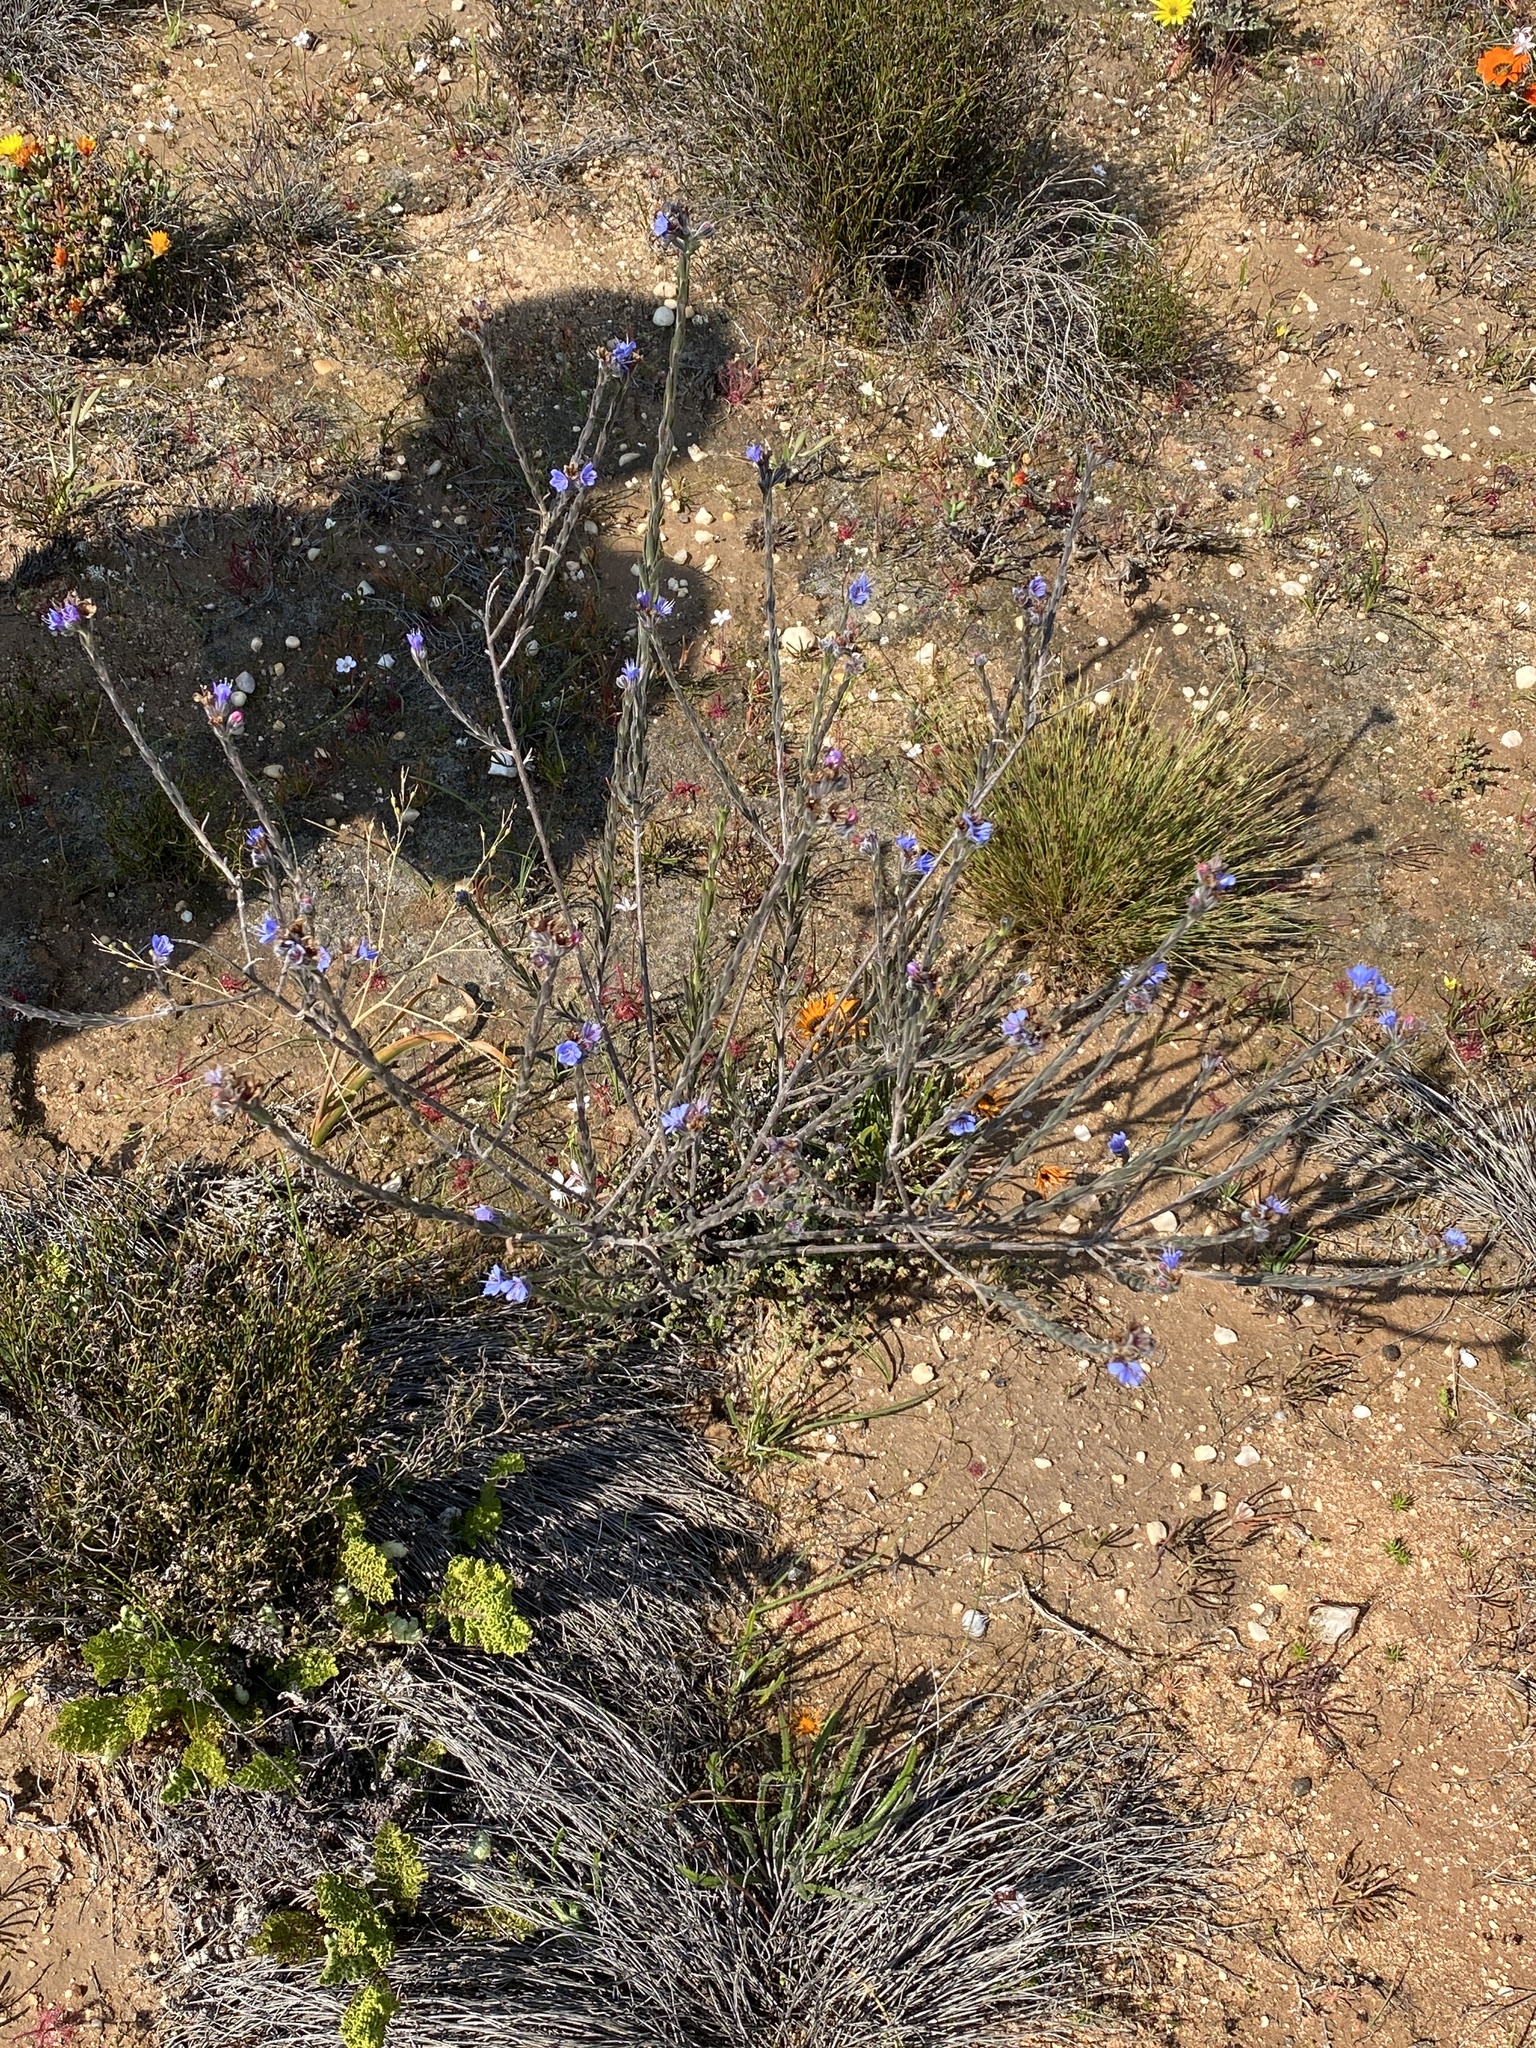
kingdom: Plantae
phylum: Tracheophyta
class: Magnoliopsida
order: Boraginales
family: Boraginaceae
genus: Lobostemon
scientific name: Lobostemon echioides
